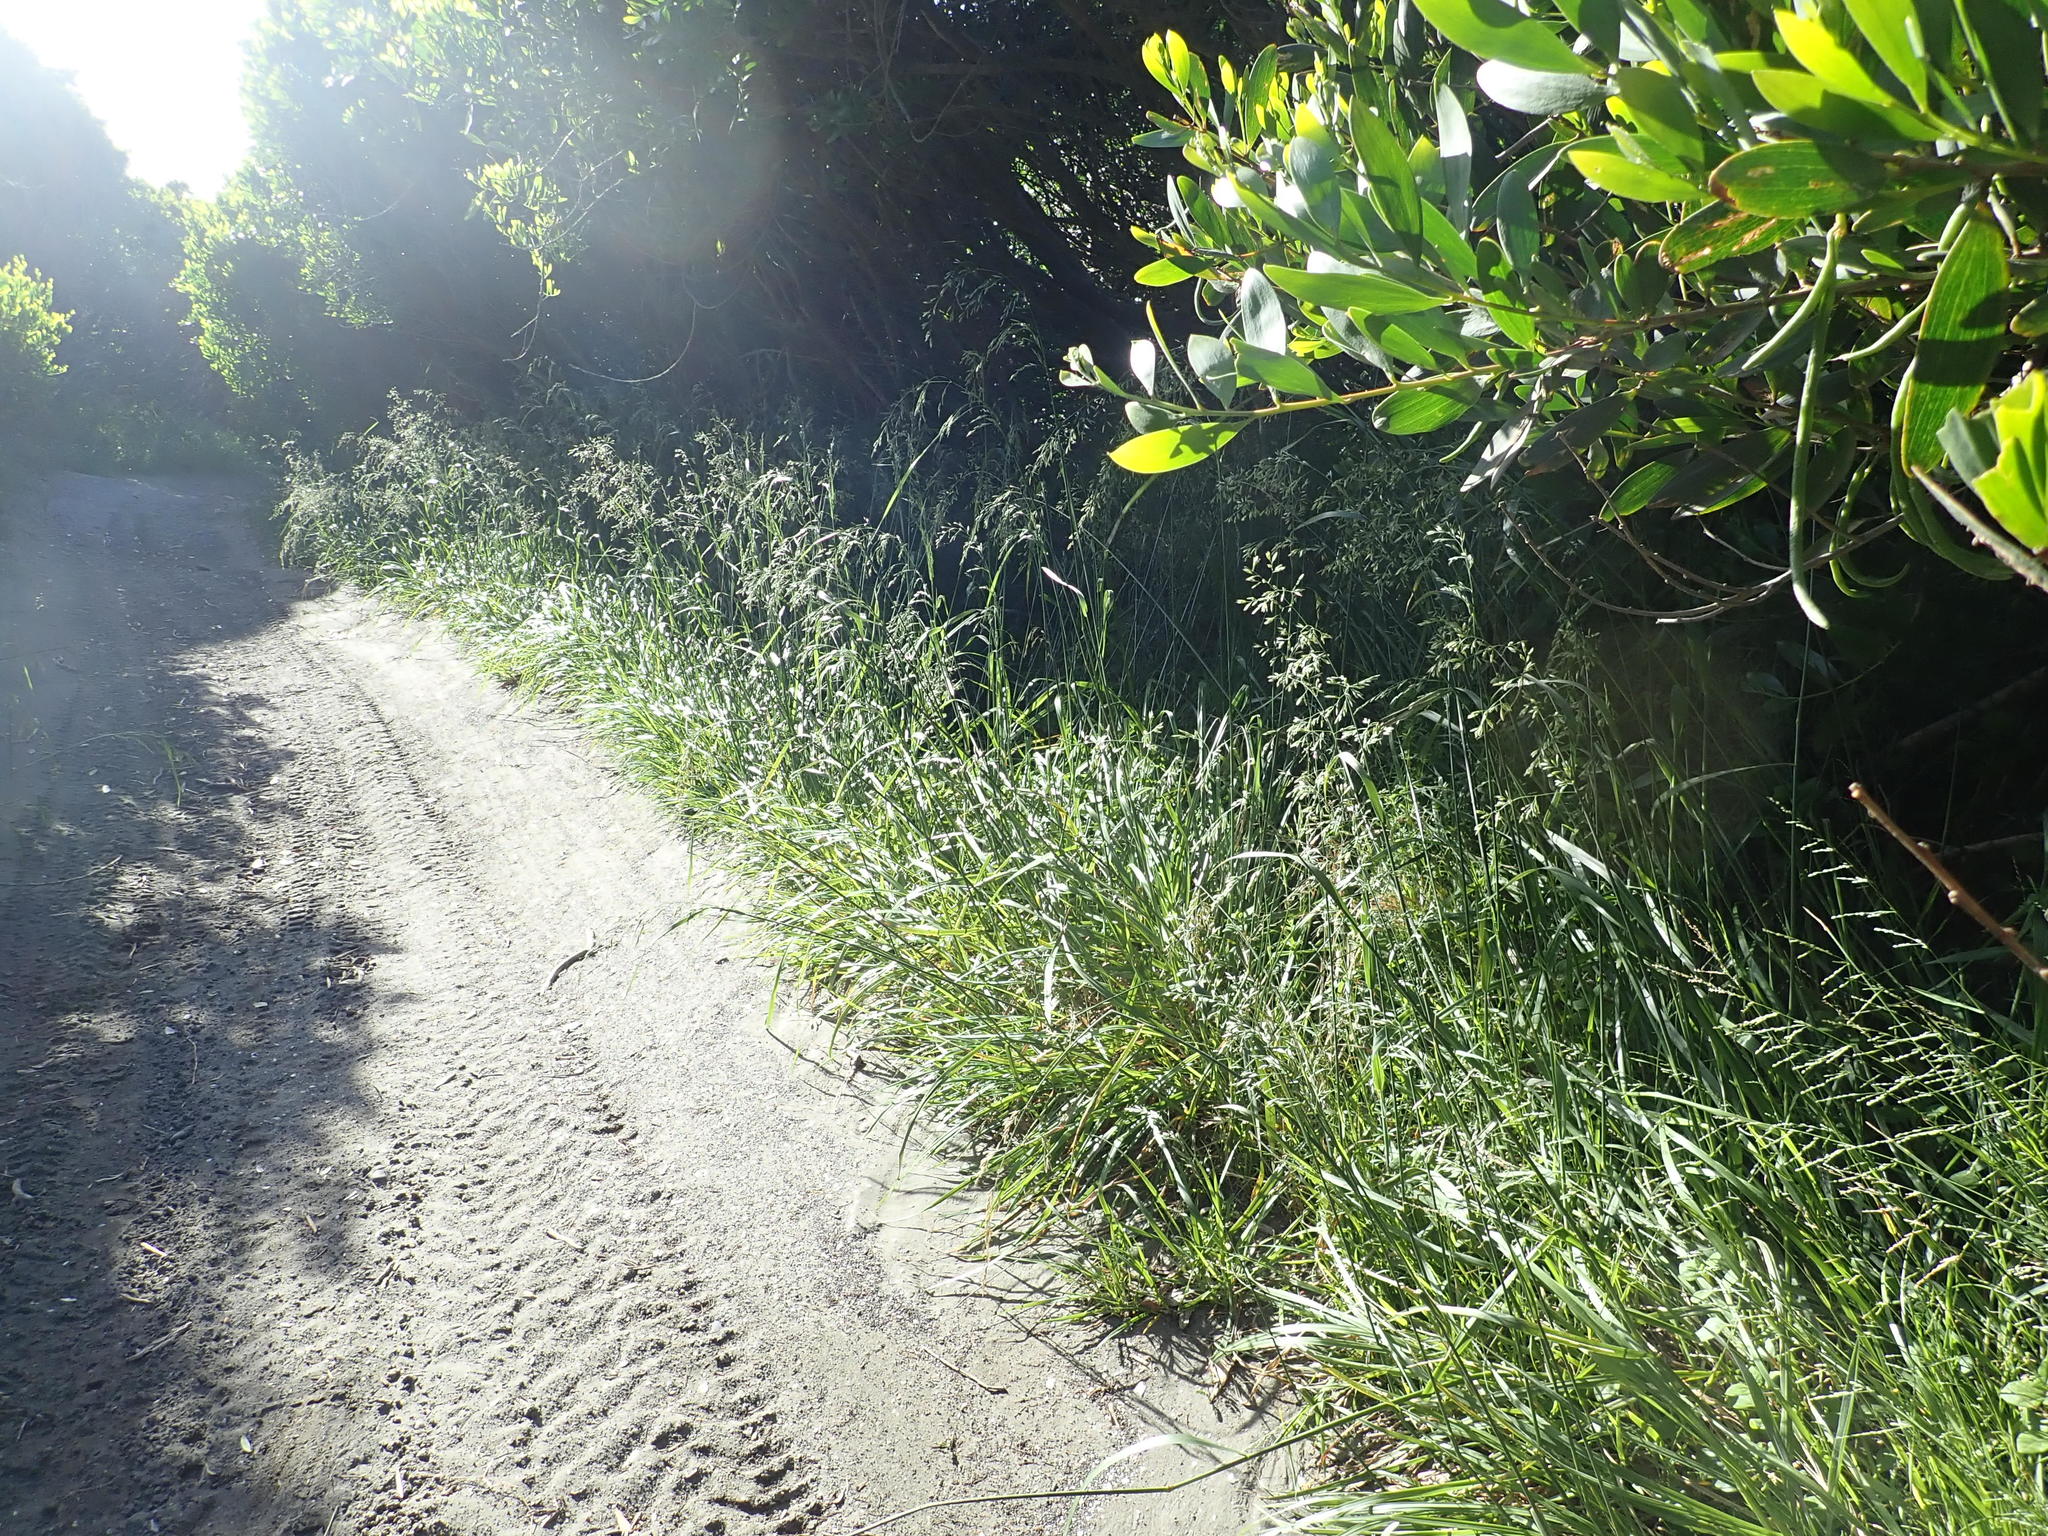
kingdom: Plantae
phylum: Tracheophyta
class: Liliopsida
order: Poales
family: Poaceae
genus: Lolium
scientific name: Lolium arundinaceum
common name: Reed fescue
